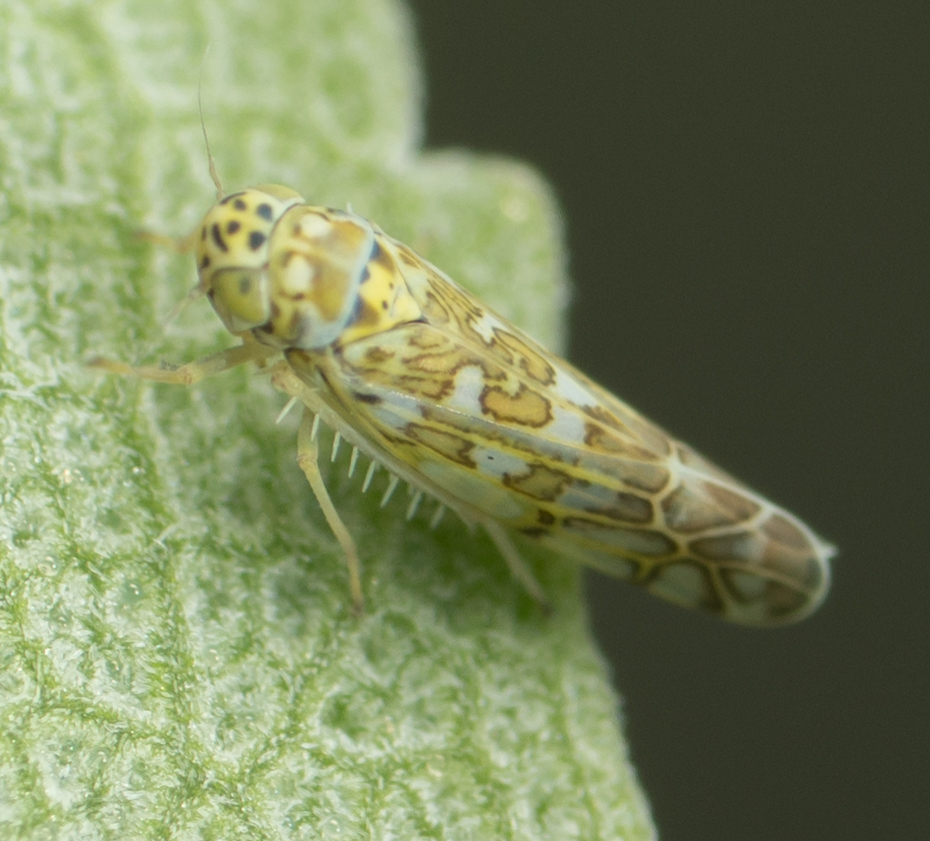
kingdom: Animalia
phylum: Arthropoda
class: Insecta
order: Hemiptera
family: Cicadellidae
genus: Eupteryx
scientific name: Eupteryx decemnotata
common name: Ligurian leafhopper
